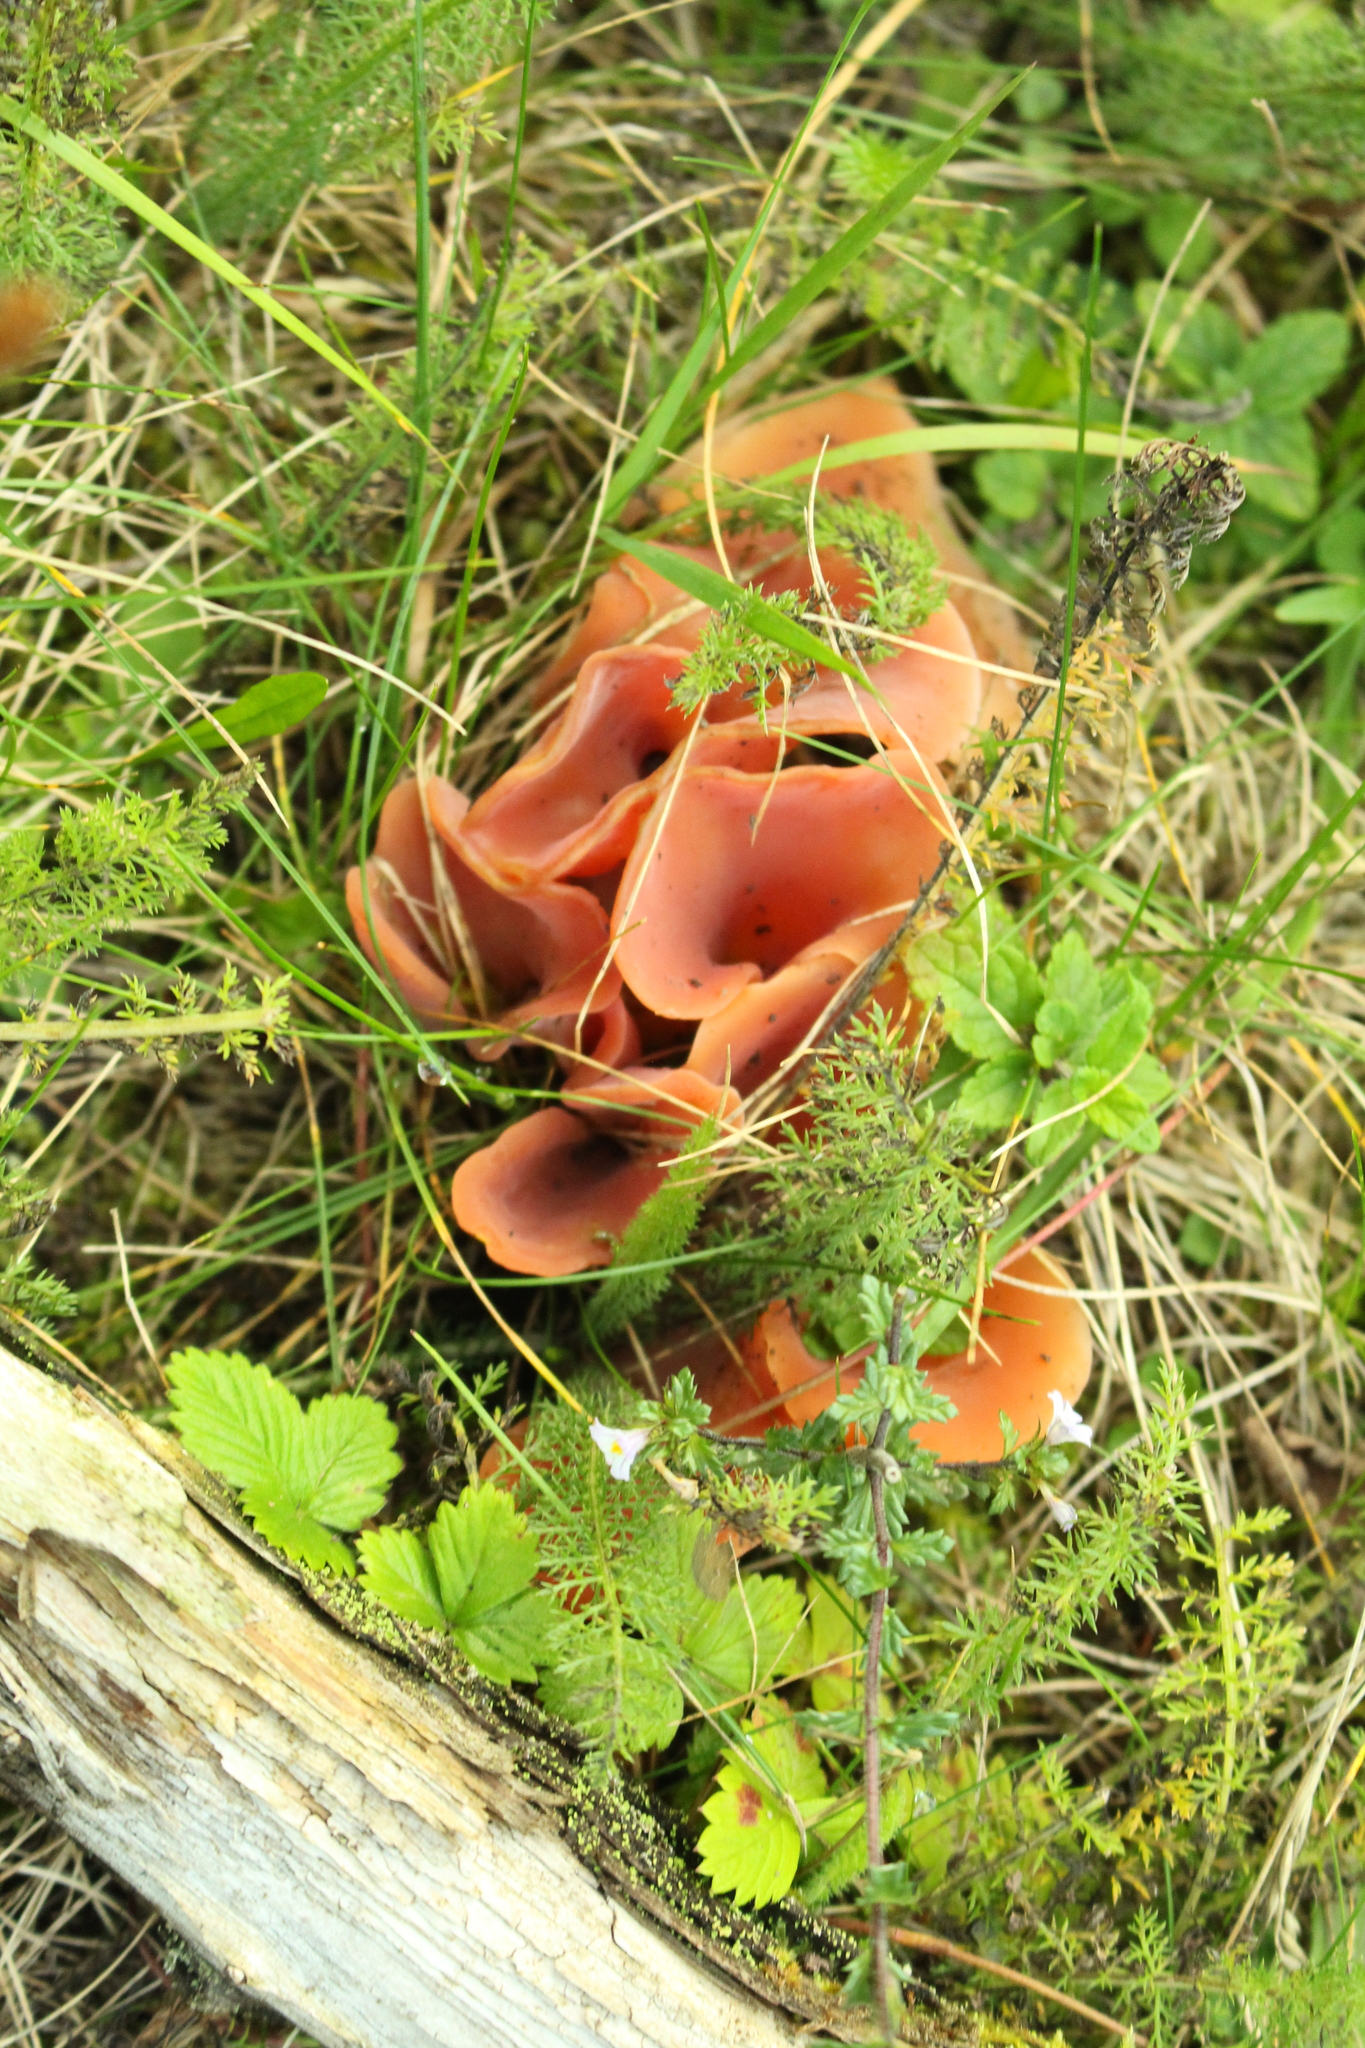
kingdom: Fungi
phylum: Basidiomycota
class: Agaricomycetes
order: Auriculariales
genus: Guepinia
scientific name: Guepinia helvelloides
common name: Salmon salad
